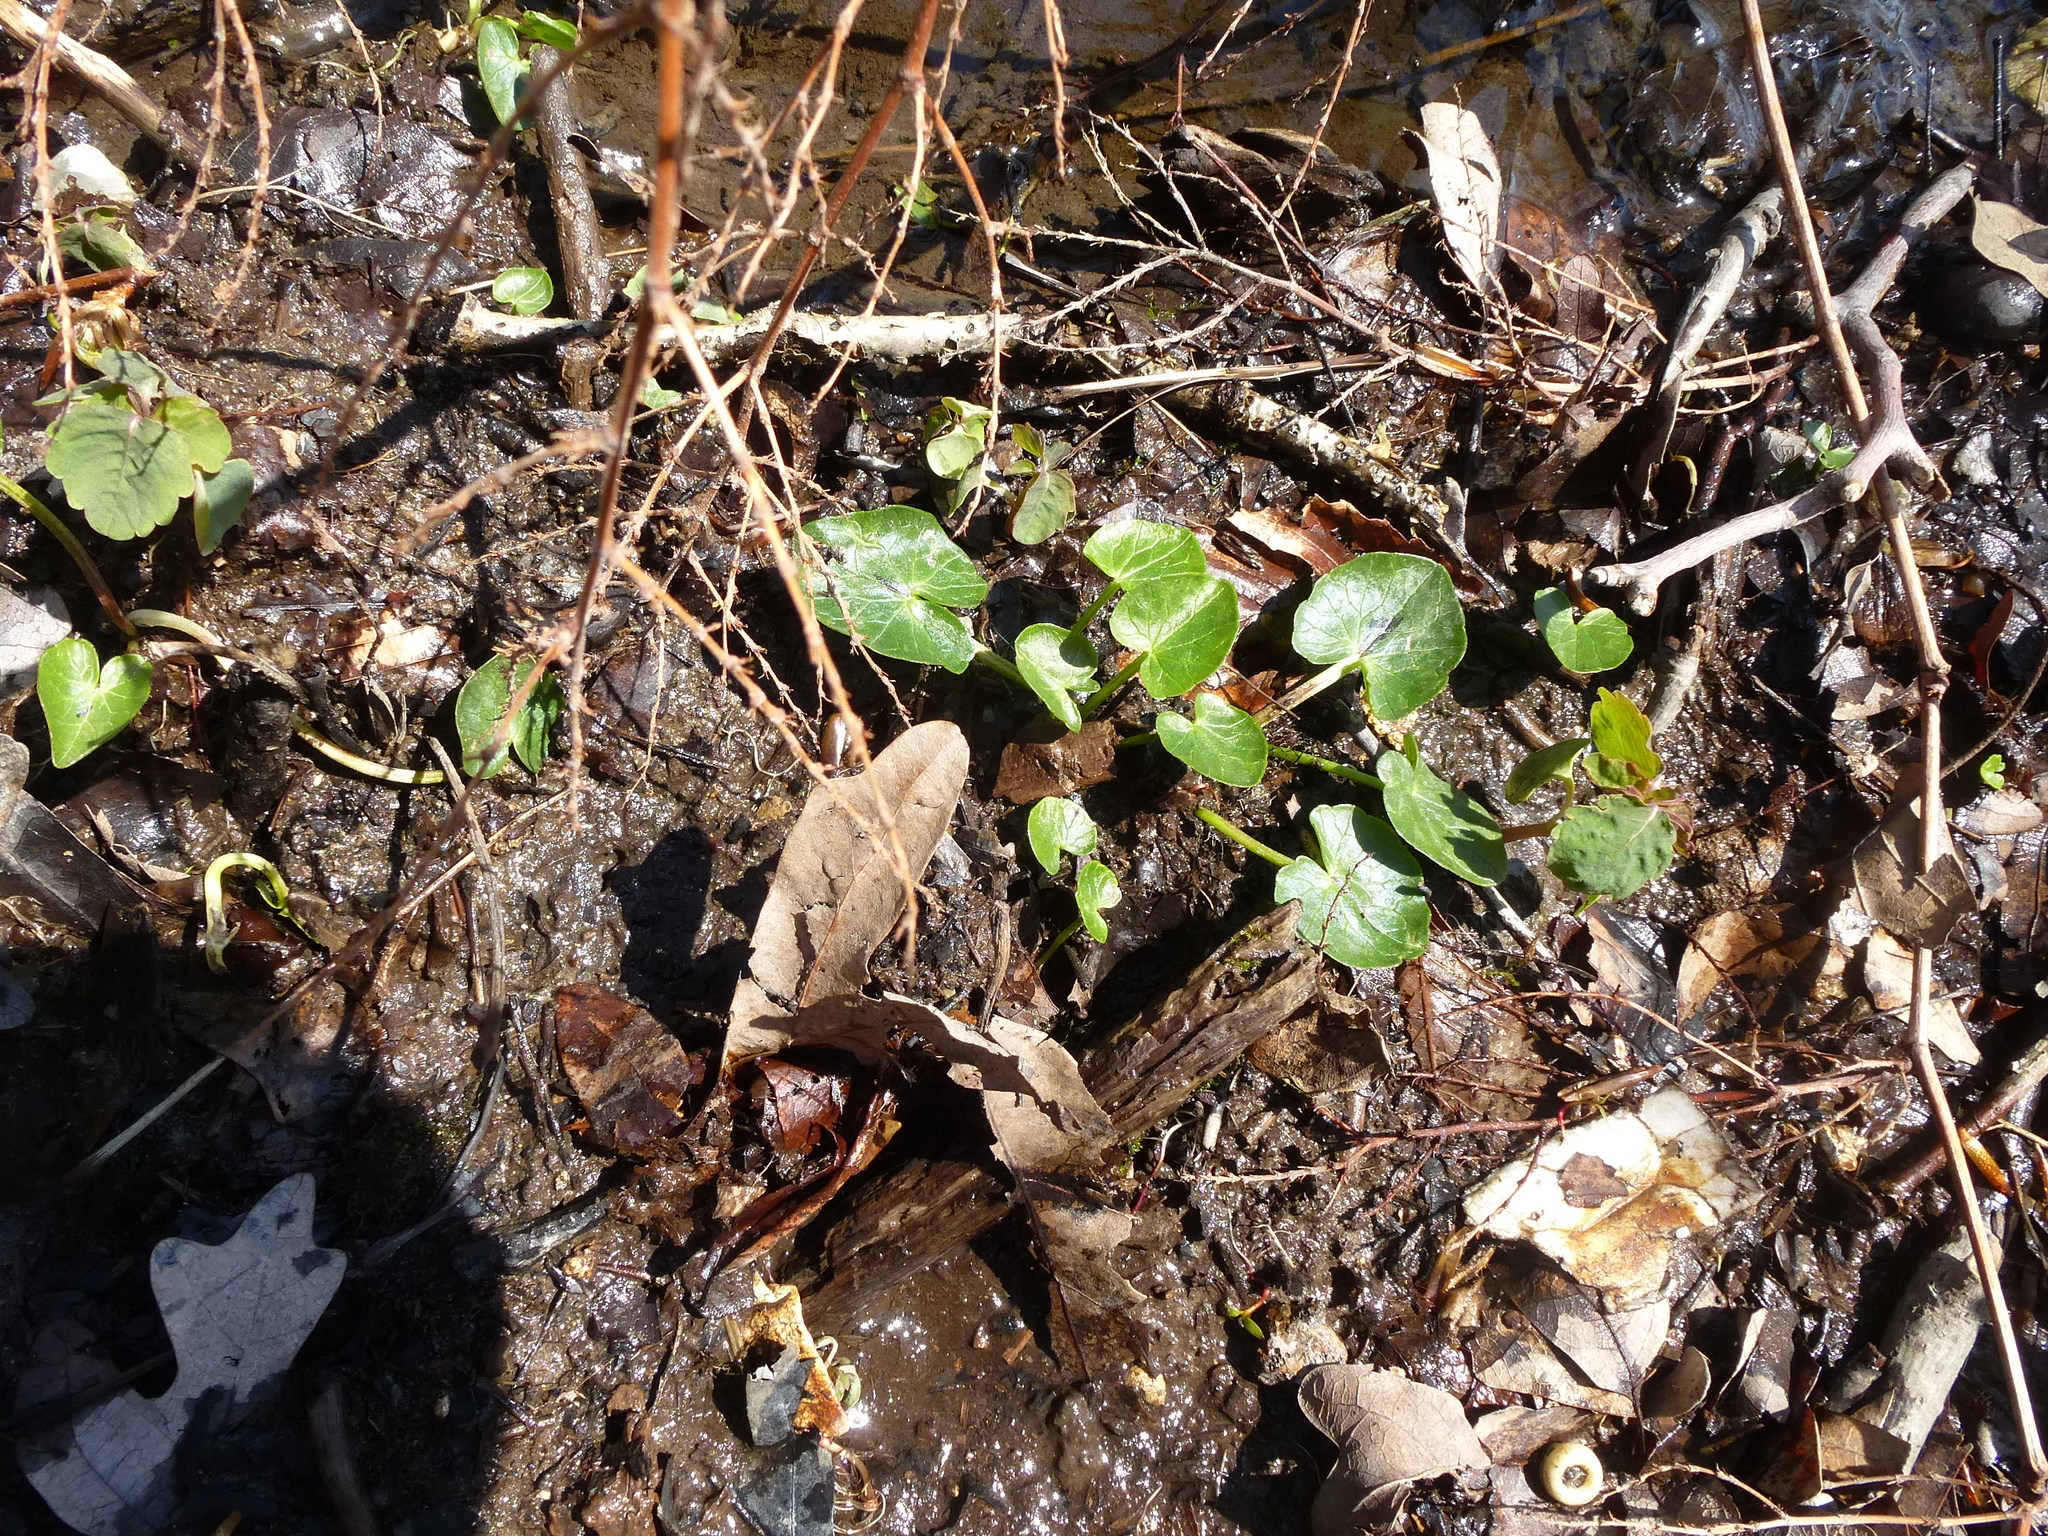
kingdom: Plantae
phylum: Tracheophyta
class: Magnoliopsida
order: Ranunculales
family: Ranunculaceae
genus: Ficaria
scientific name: Ficaria verna
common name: Lesser celandine
